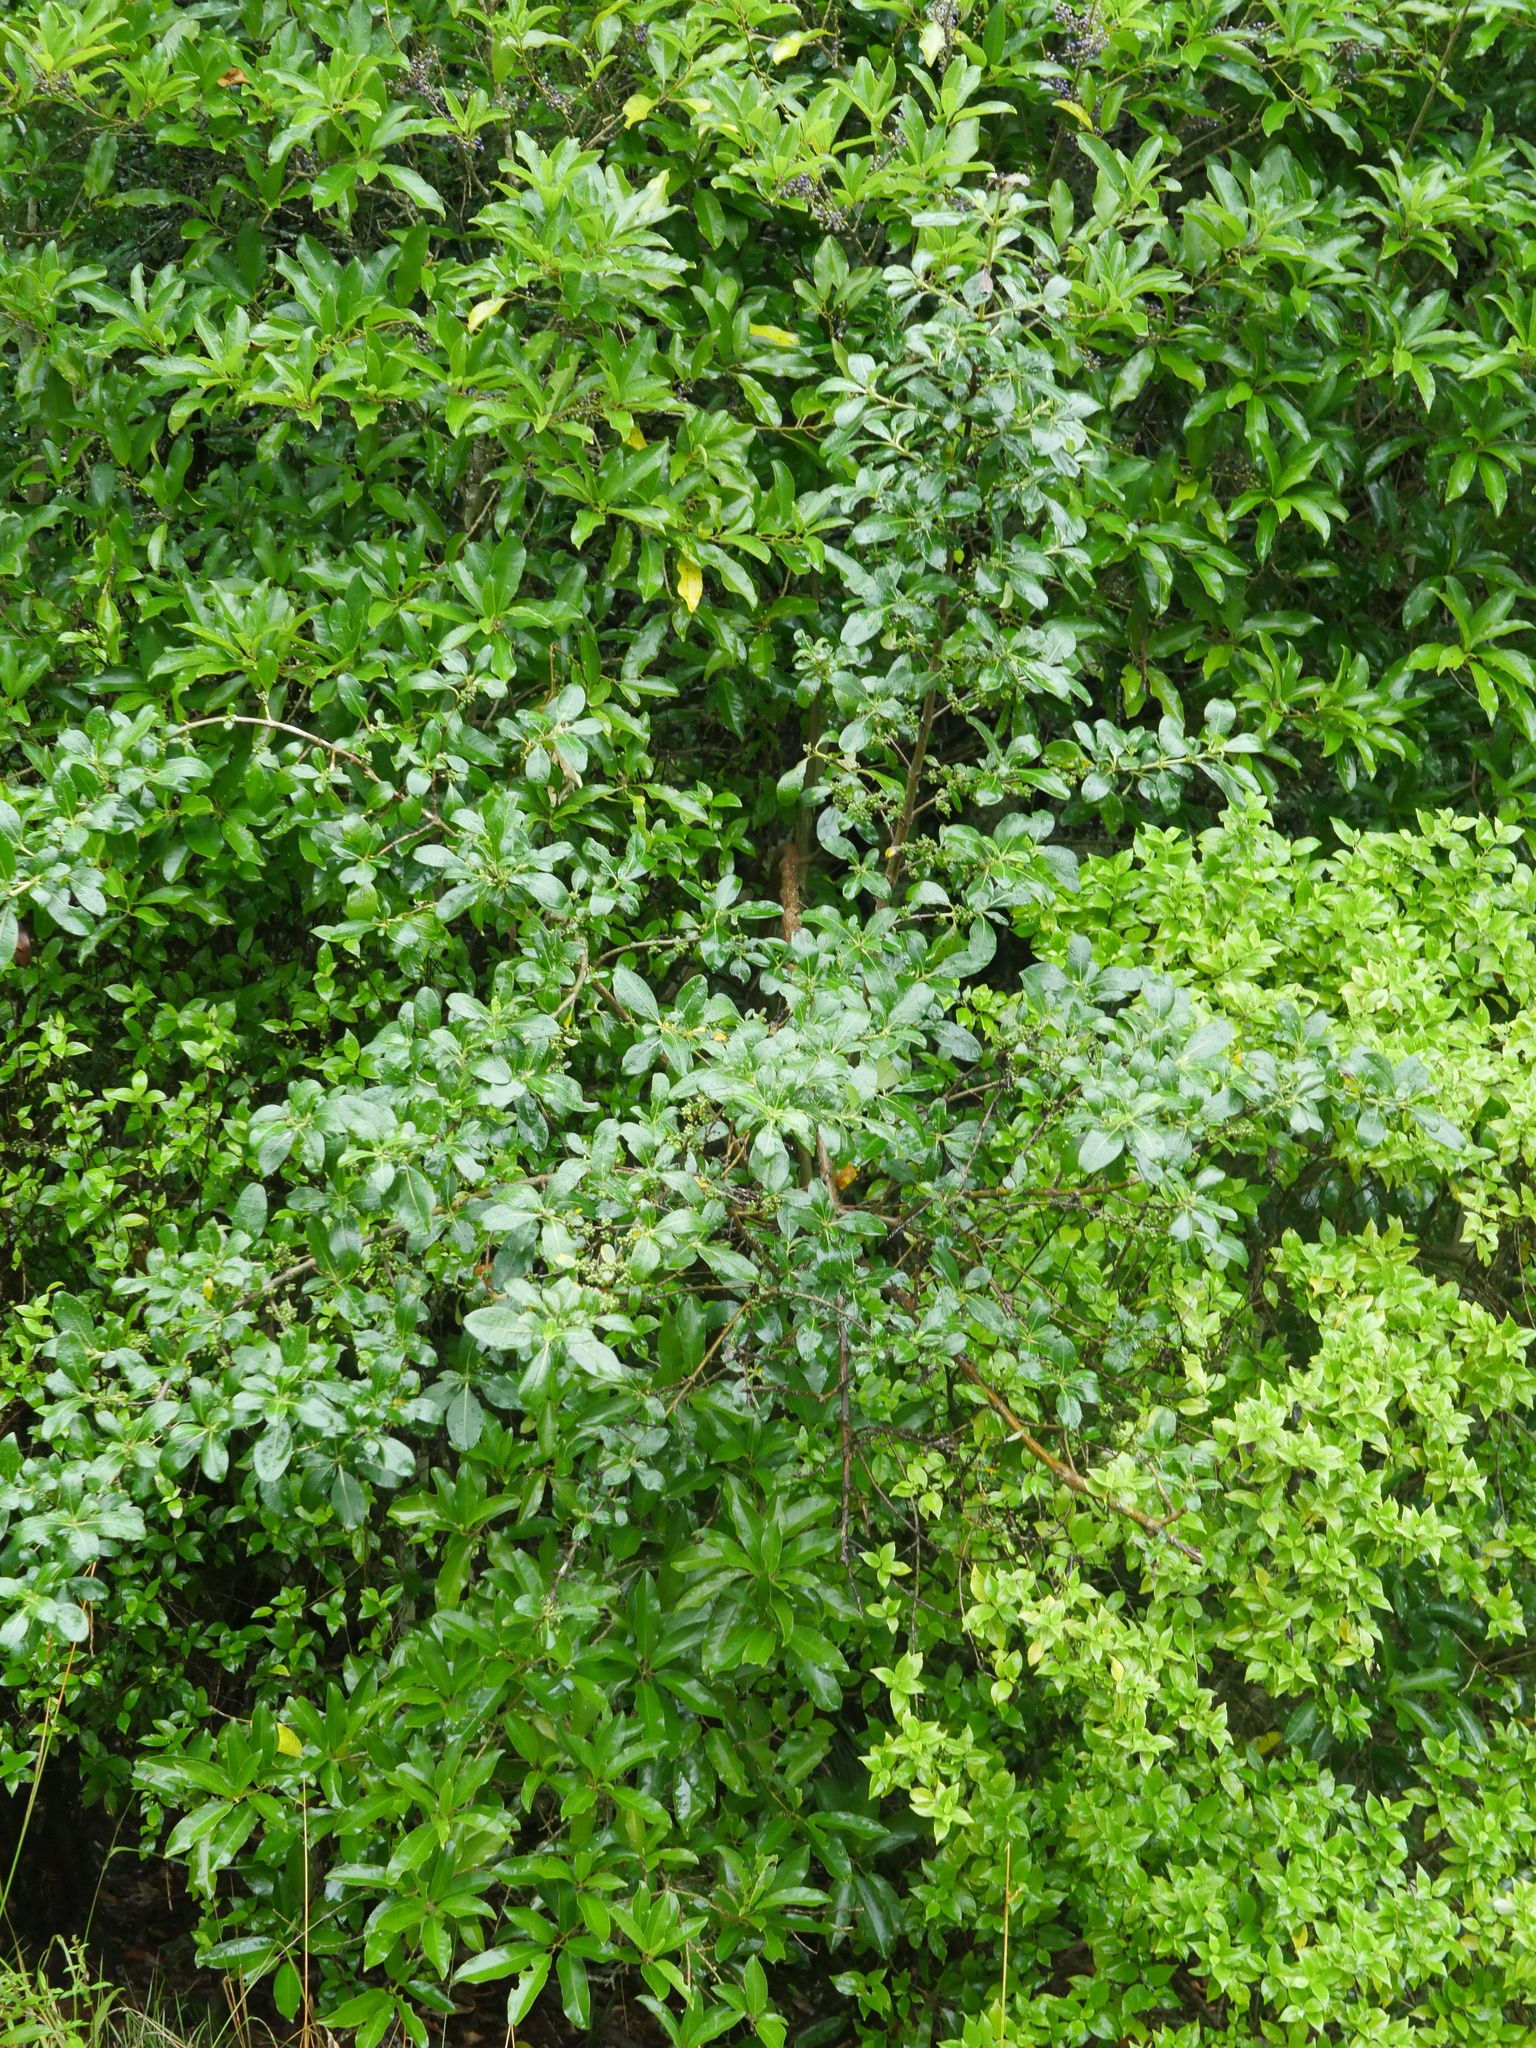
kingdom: Plantae
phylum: Tracheophyta
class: Magnoliopsida
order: Gentianales
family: Rubiaceae
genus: Coprosma
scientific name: Coprosma robusta
